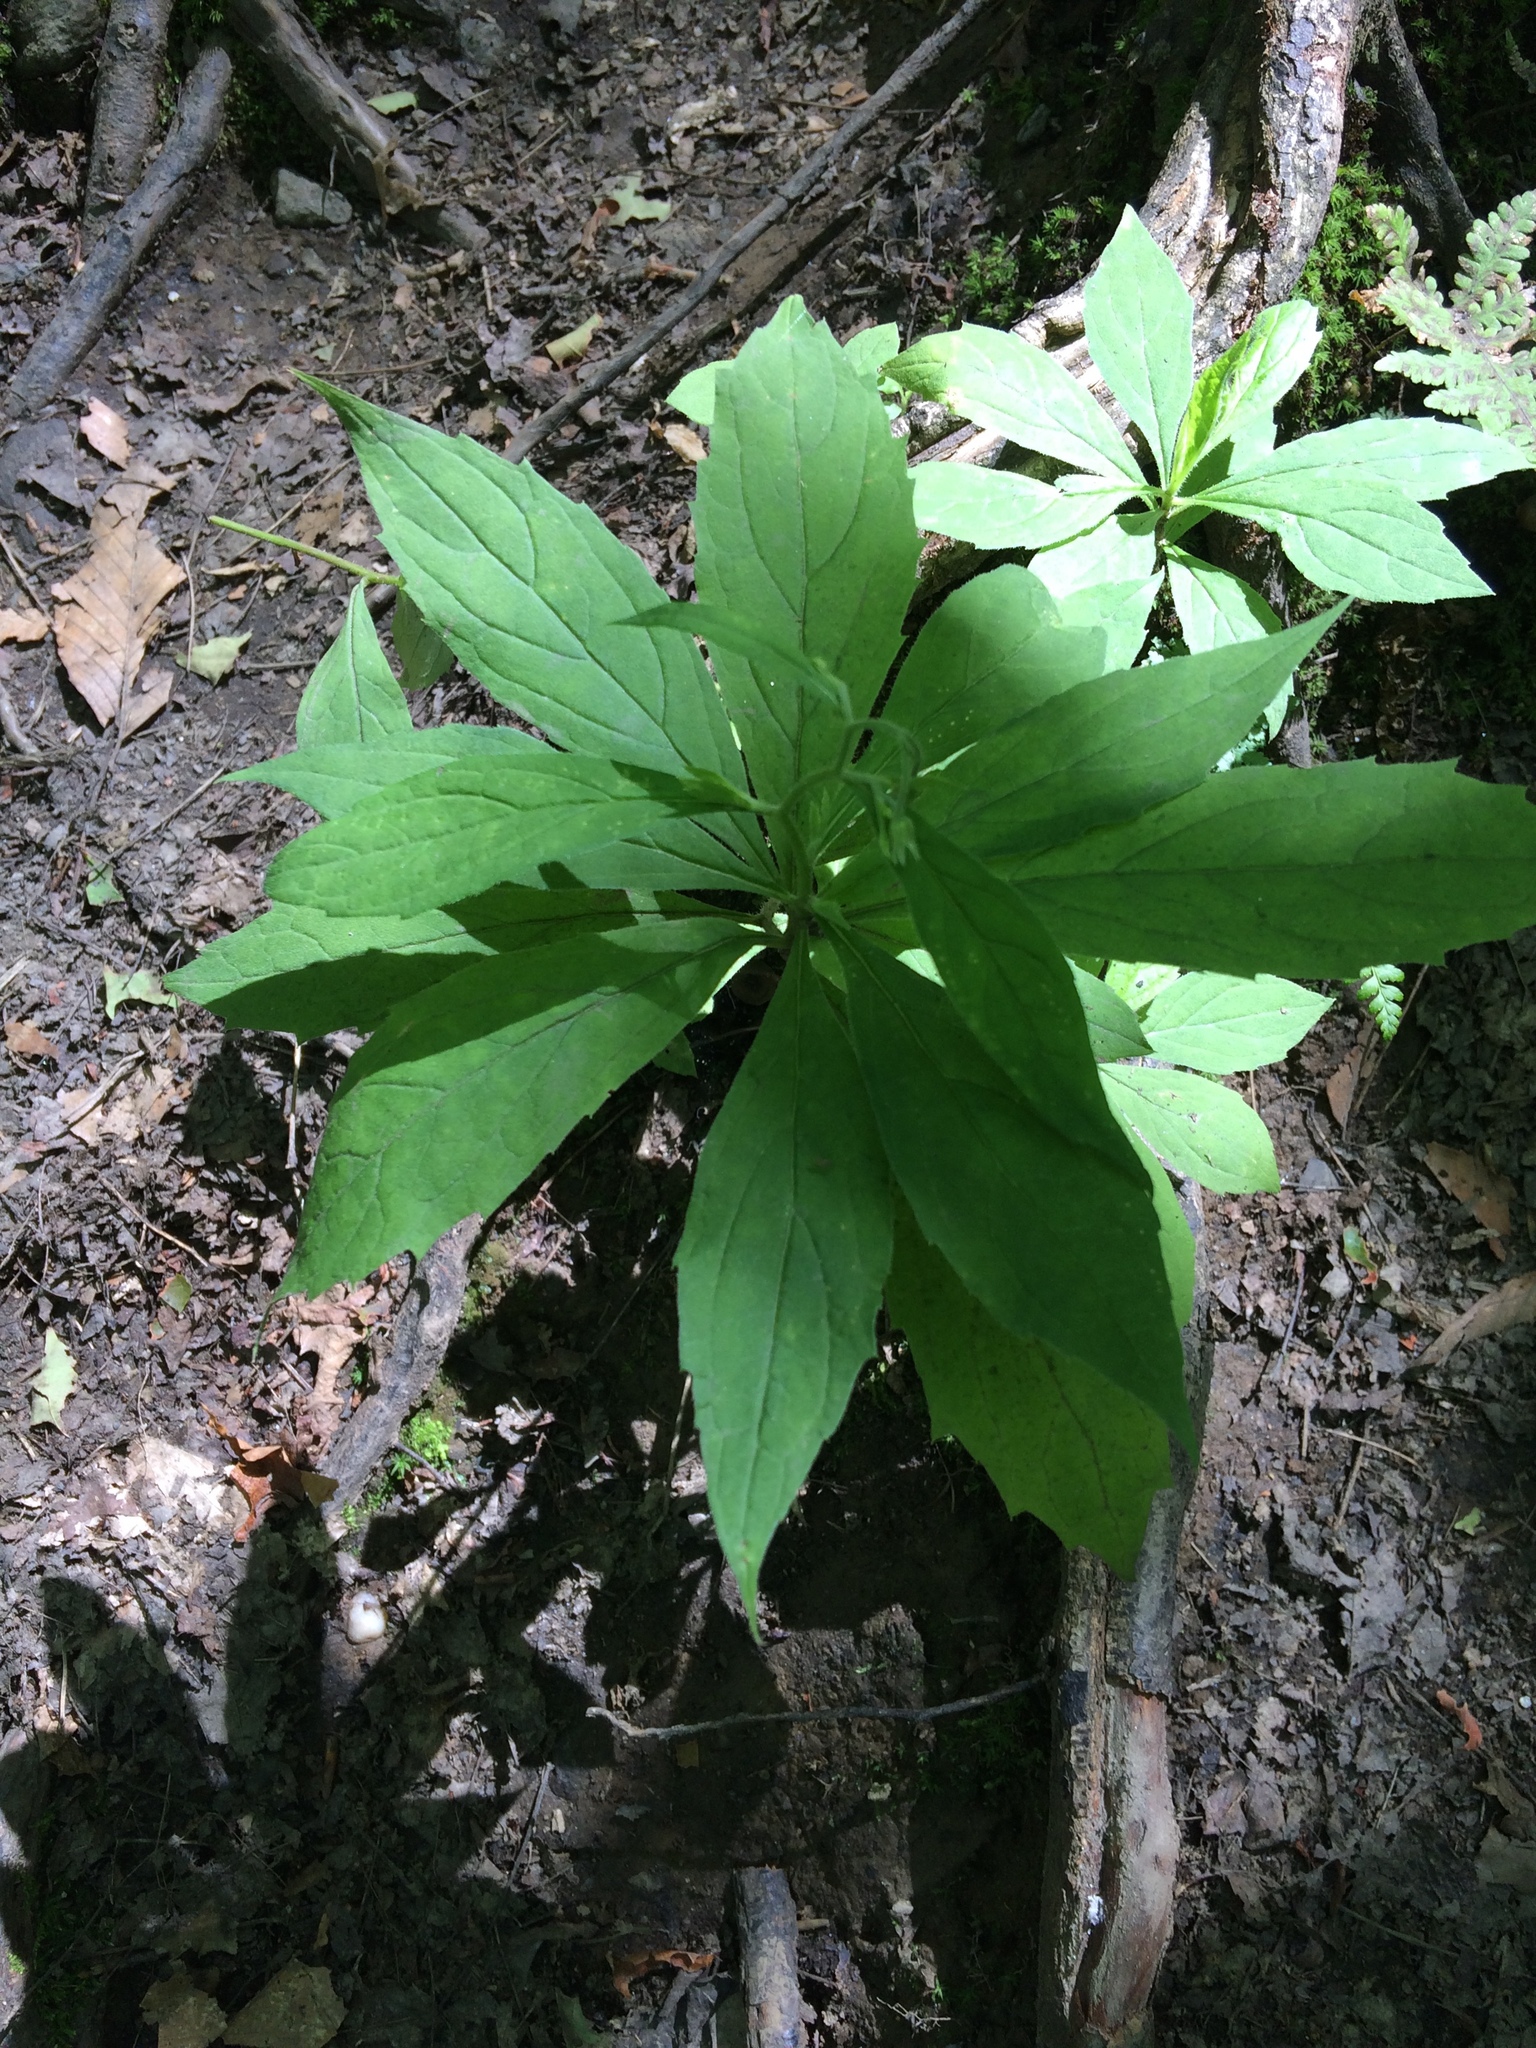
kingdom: Plantae
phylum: Tracheophyta
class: Magnoliopsida
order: Asterales
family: Asteraceae
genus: Oclemena
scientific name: Oclemena acuminata
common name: Mountain aster
